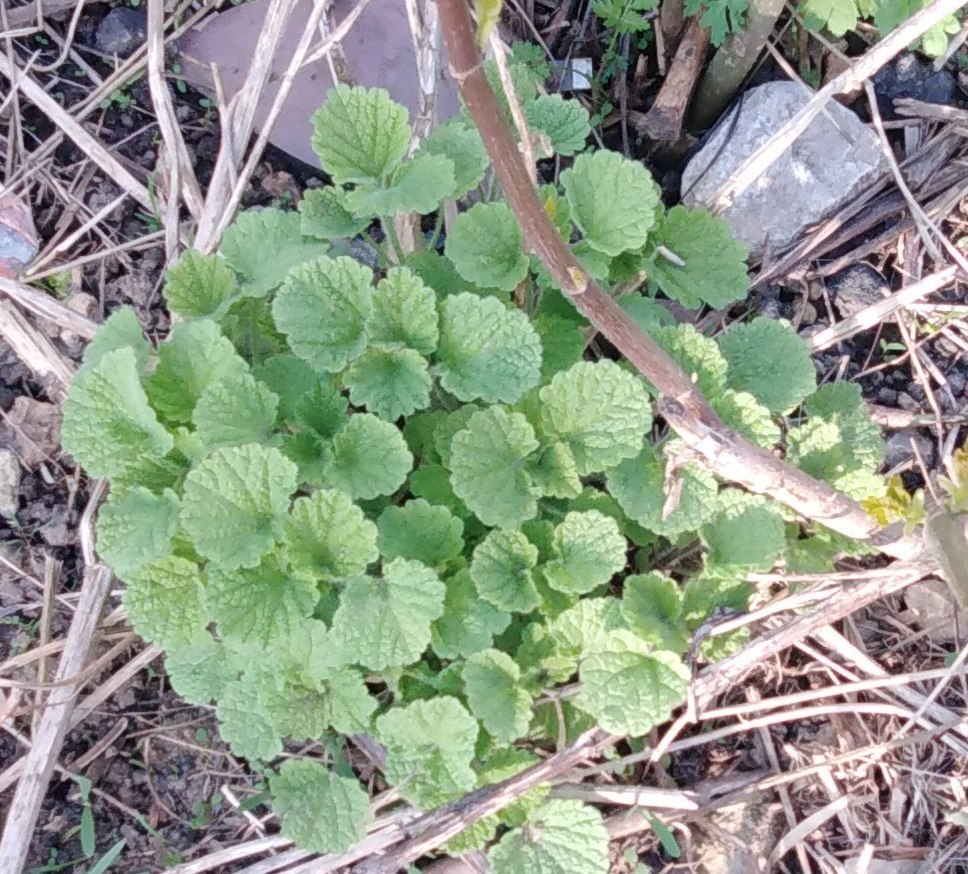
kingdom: Plantae
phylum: Tracheophyta
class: Magnoliopsida
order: Lamiales
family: Lamiaceae
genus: Ballota
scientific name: Ballota nigra
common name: Black horehound
